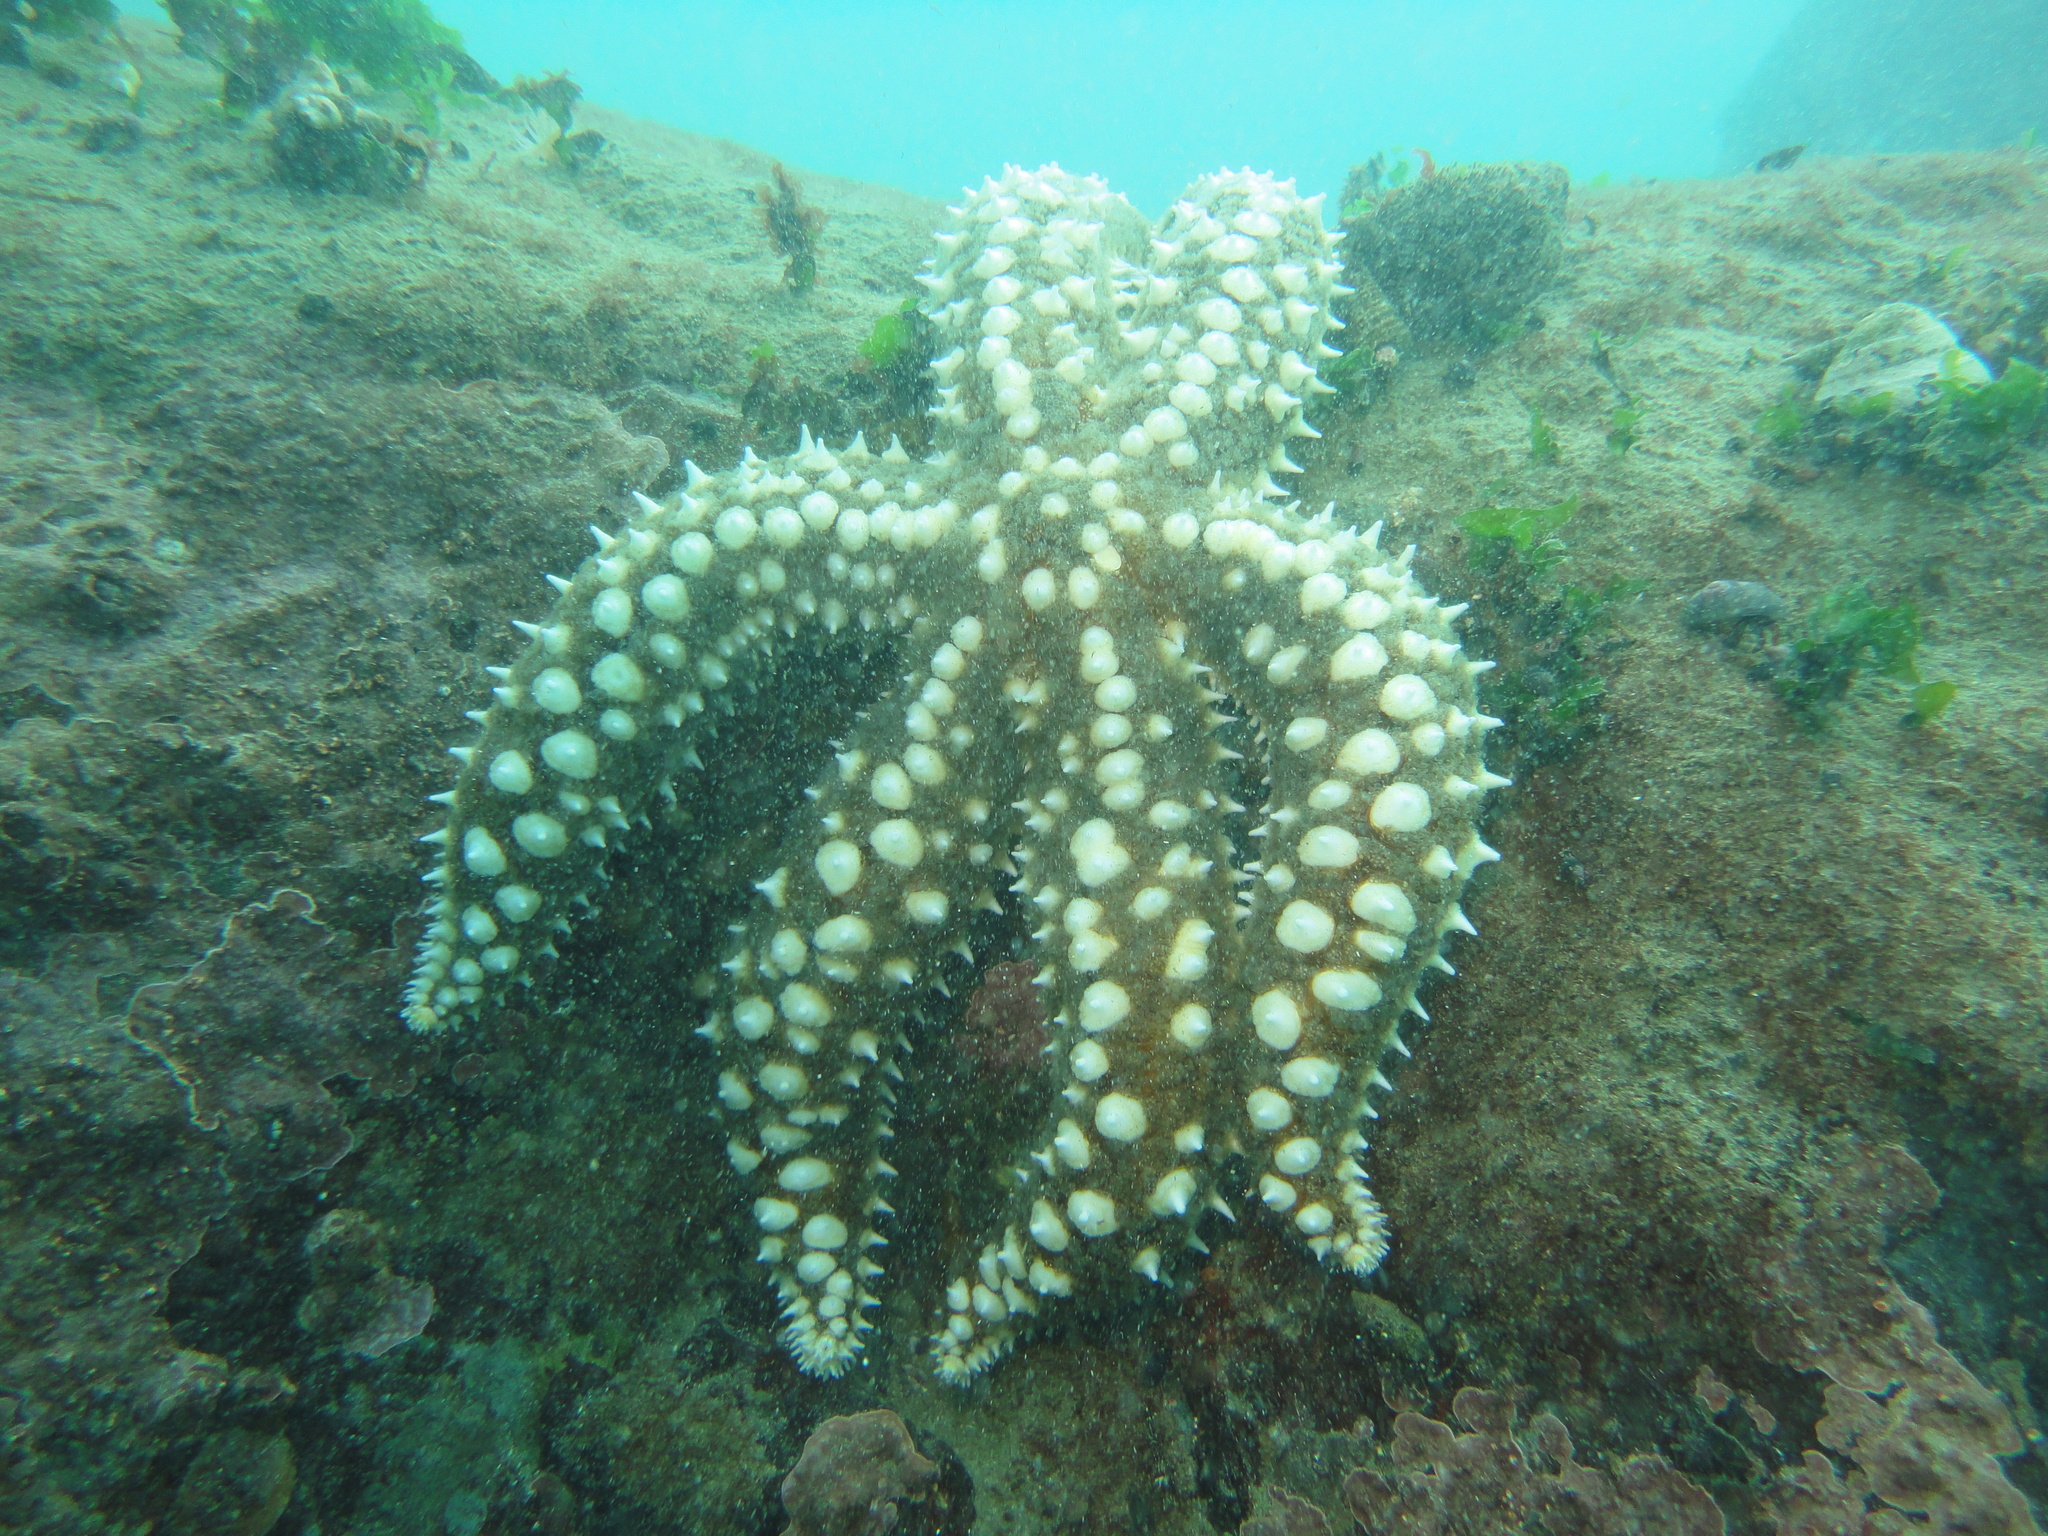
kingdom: Animalia
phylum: Echinodermata
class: Asteroidea
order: Forcipulatida
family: Asteriidae
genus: Meyenaster
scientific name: Meyenaster gelatinosus
